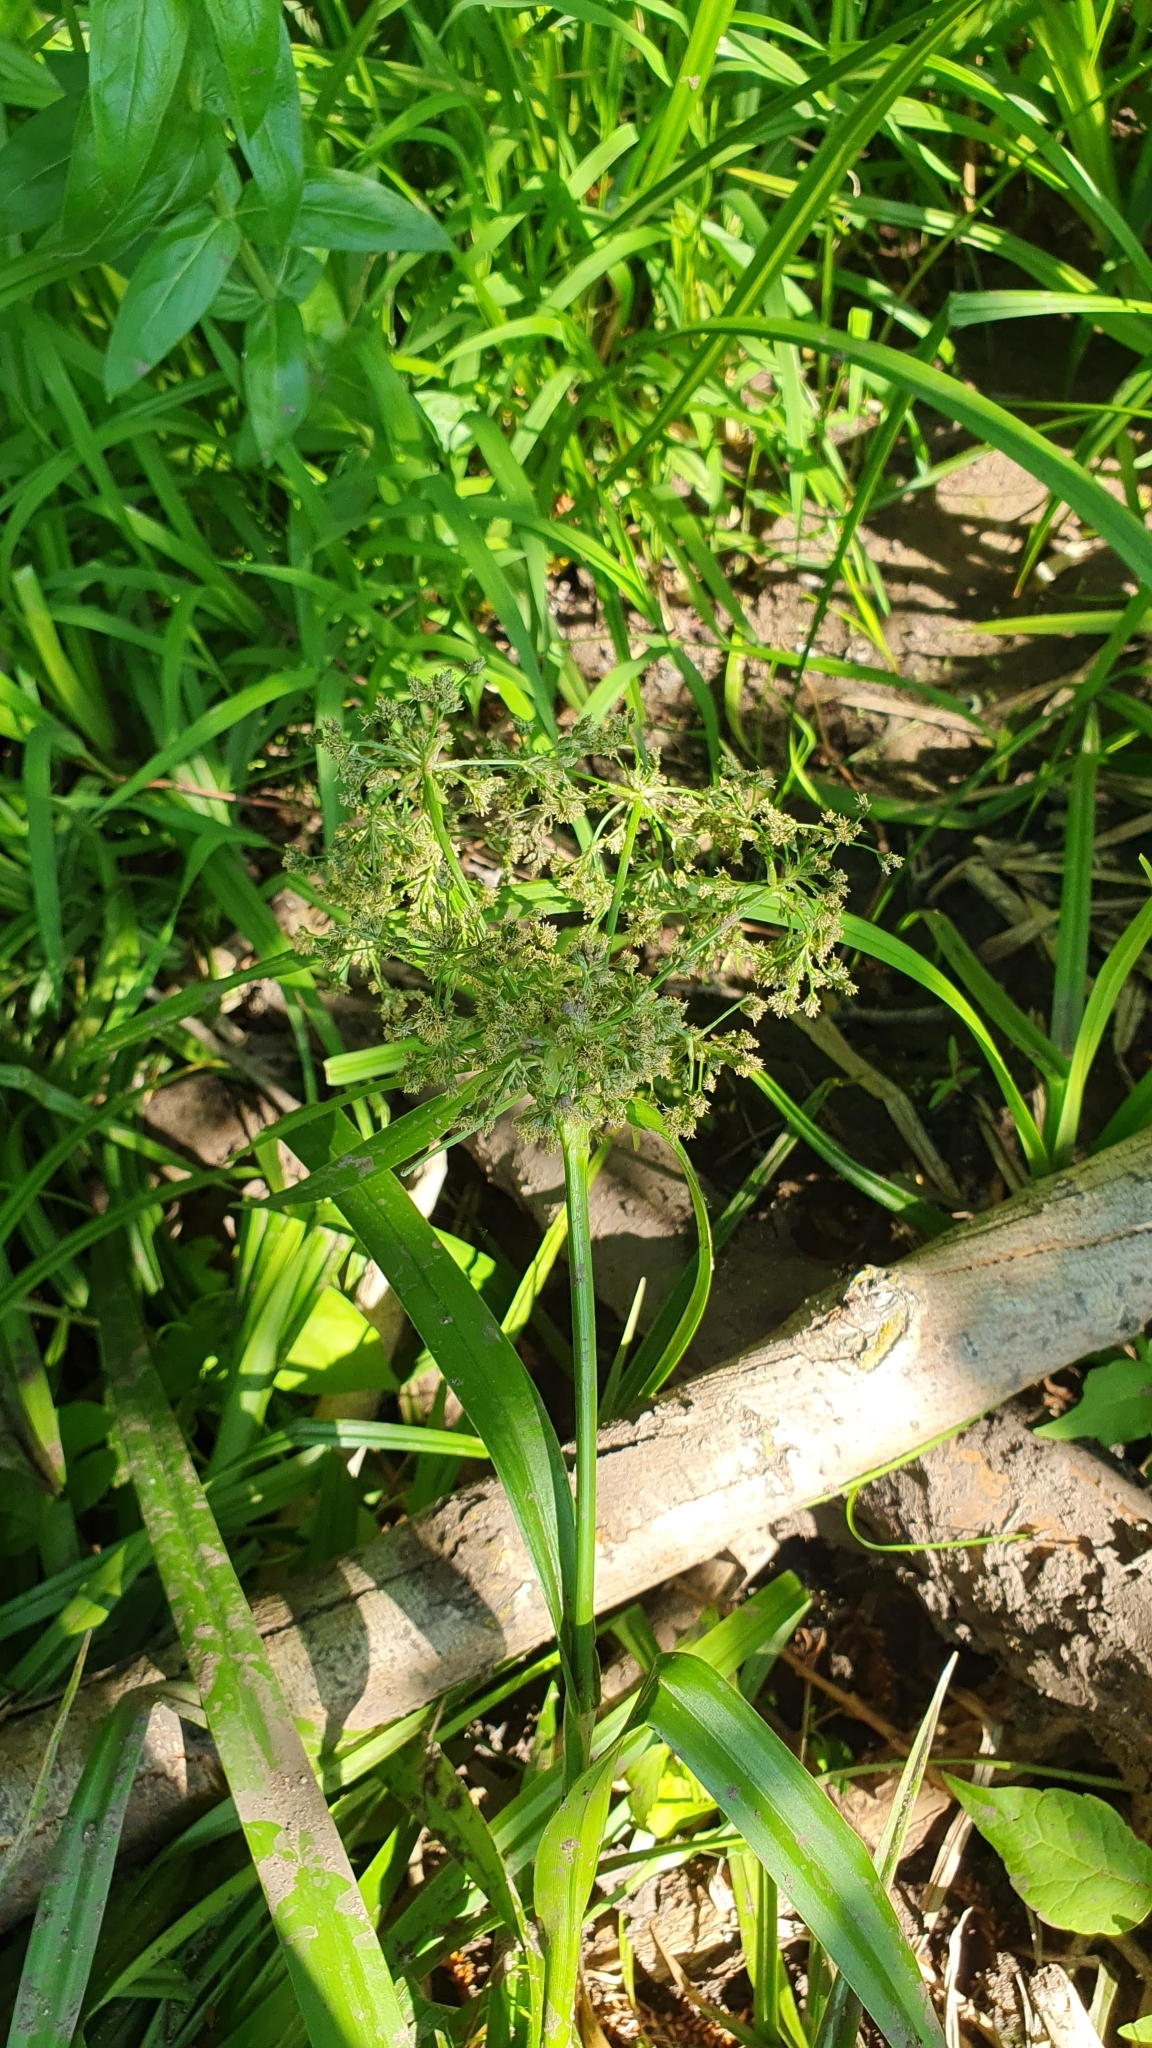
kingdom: Plantae
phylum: Tracheophyta
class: Liliopsida
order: Poales
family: Cyperaceae
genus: Scirpus
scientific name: Scirpus sylvaticus
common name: Wood club-rush
